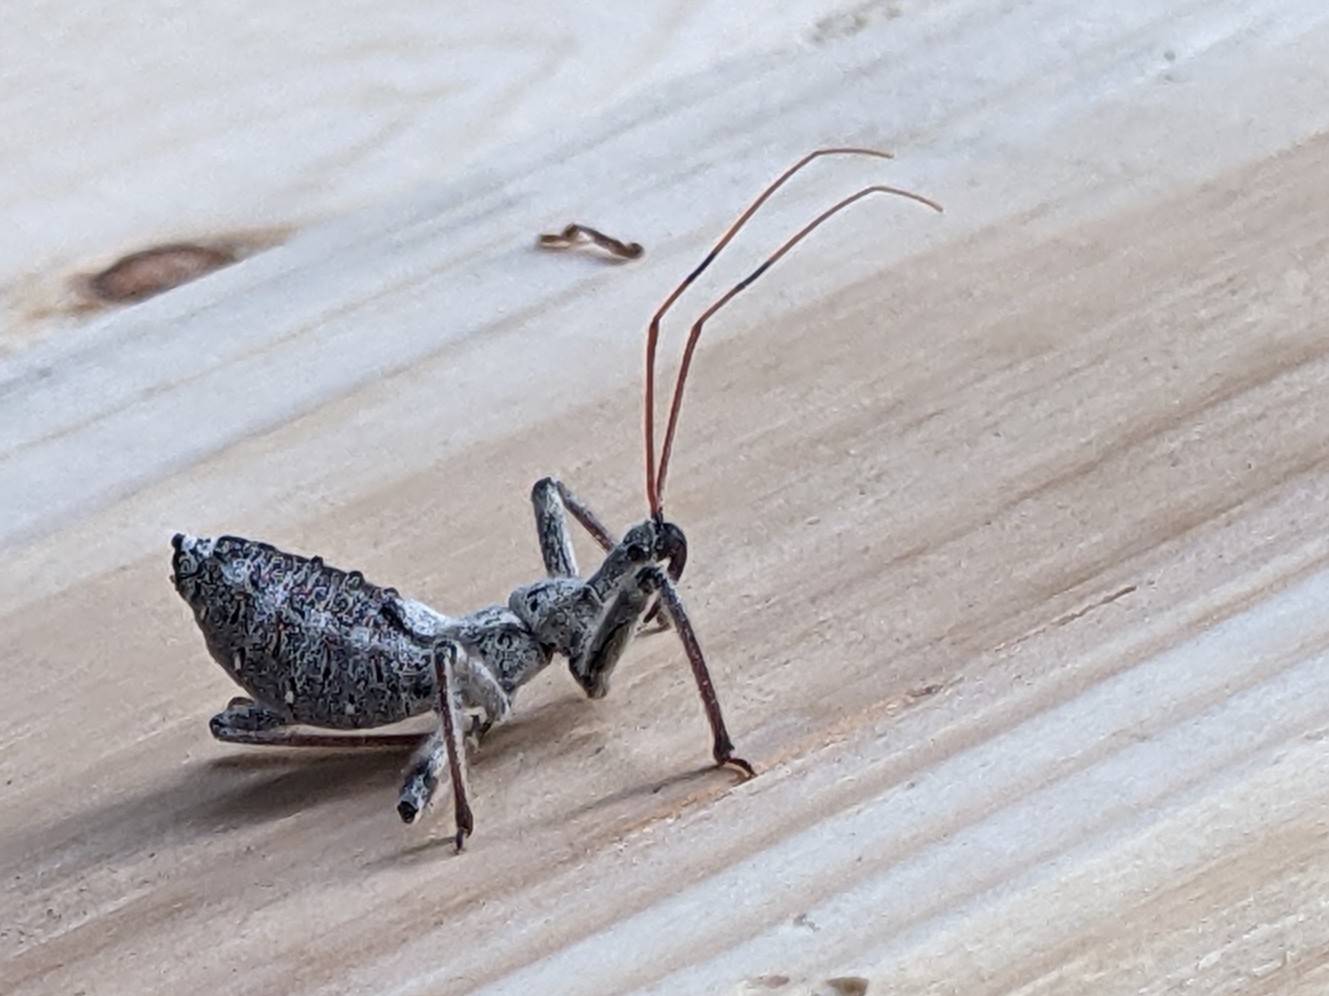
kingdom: Animalia
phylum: Arthropoda
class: Insecta
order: Hemiptera
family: Reduviidae
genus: Arilus
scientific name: Arilus cristatus
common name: North american wheel bug
